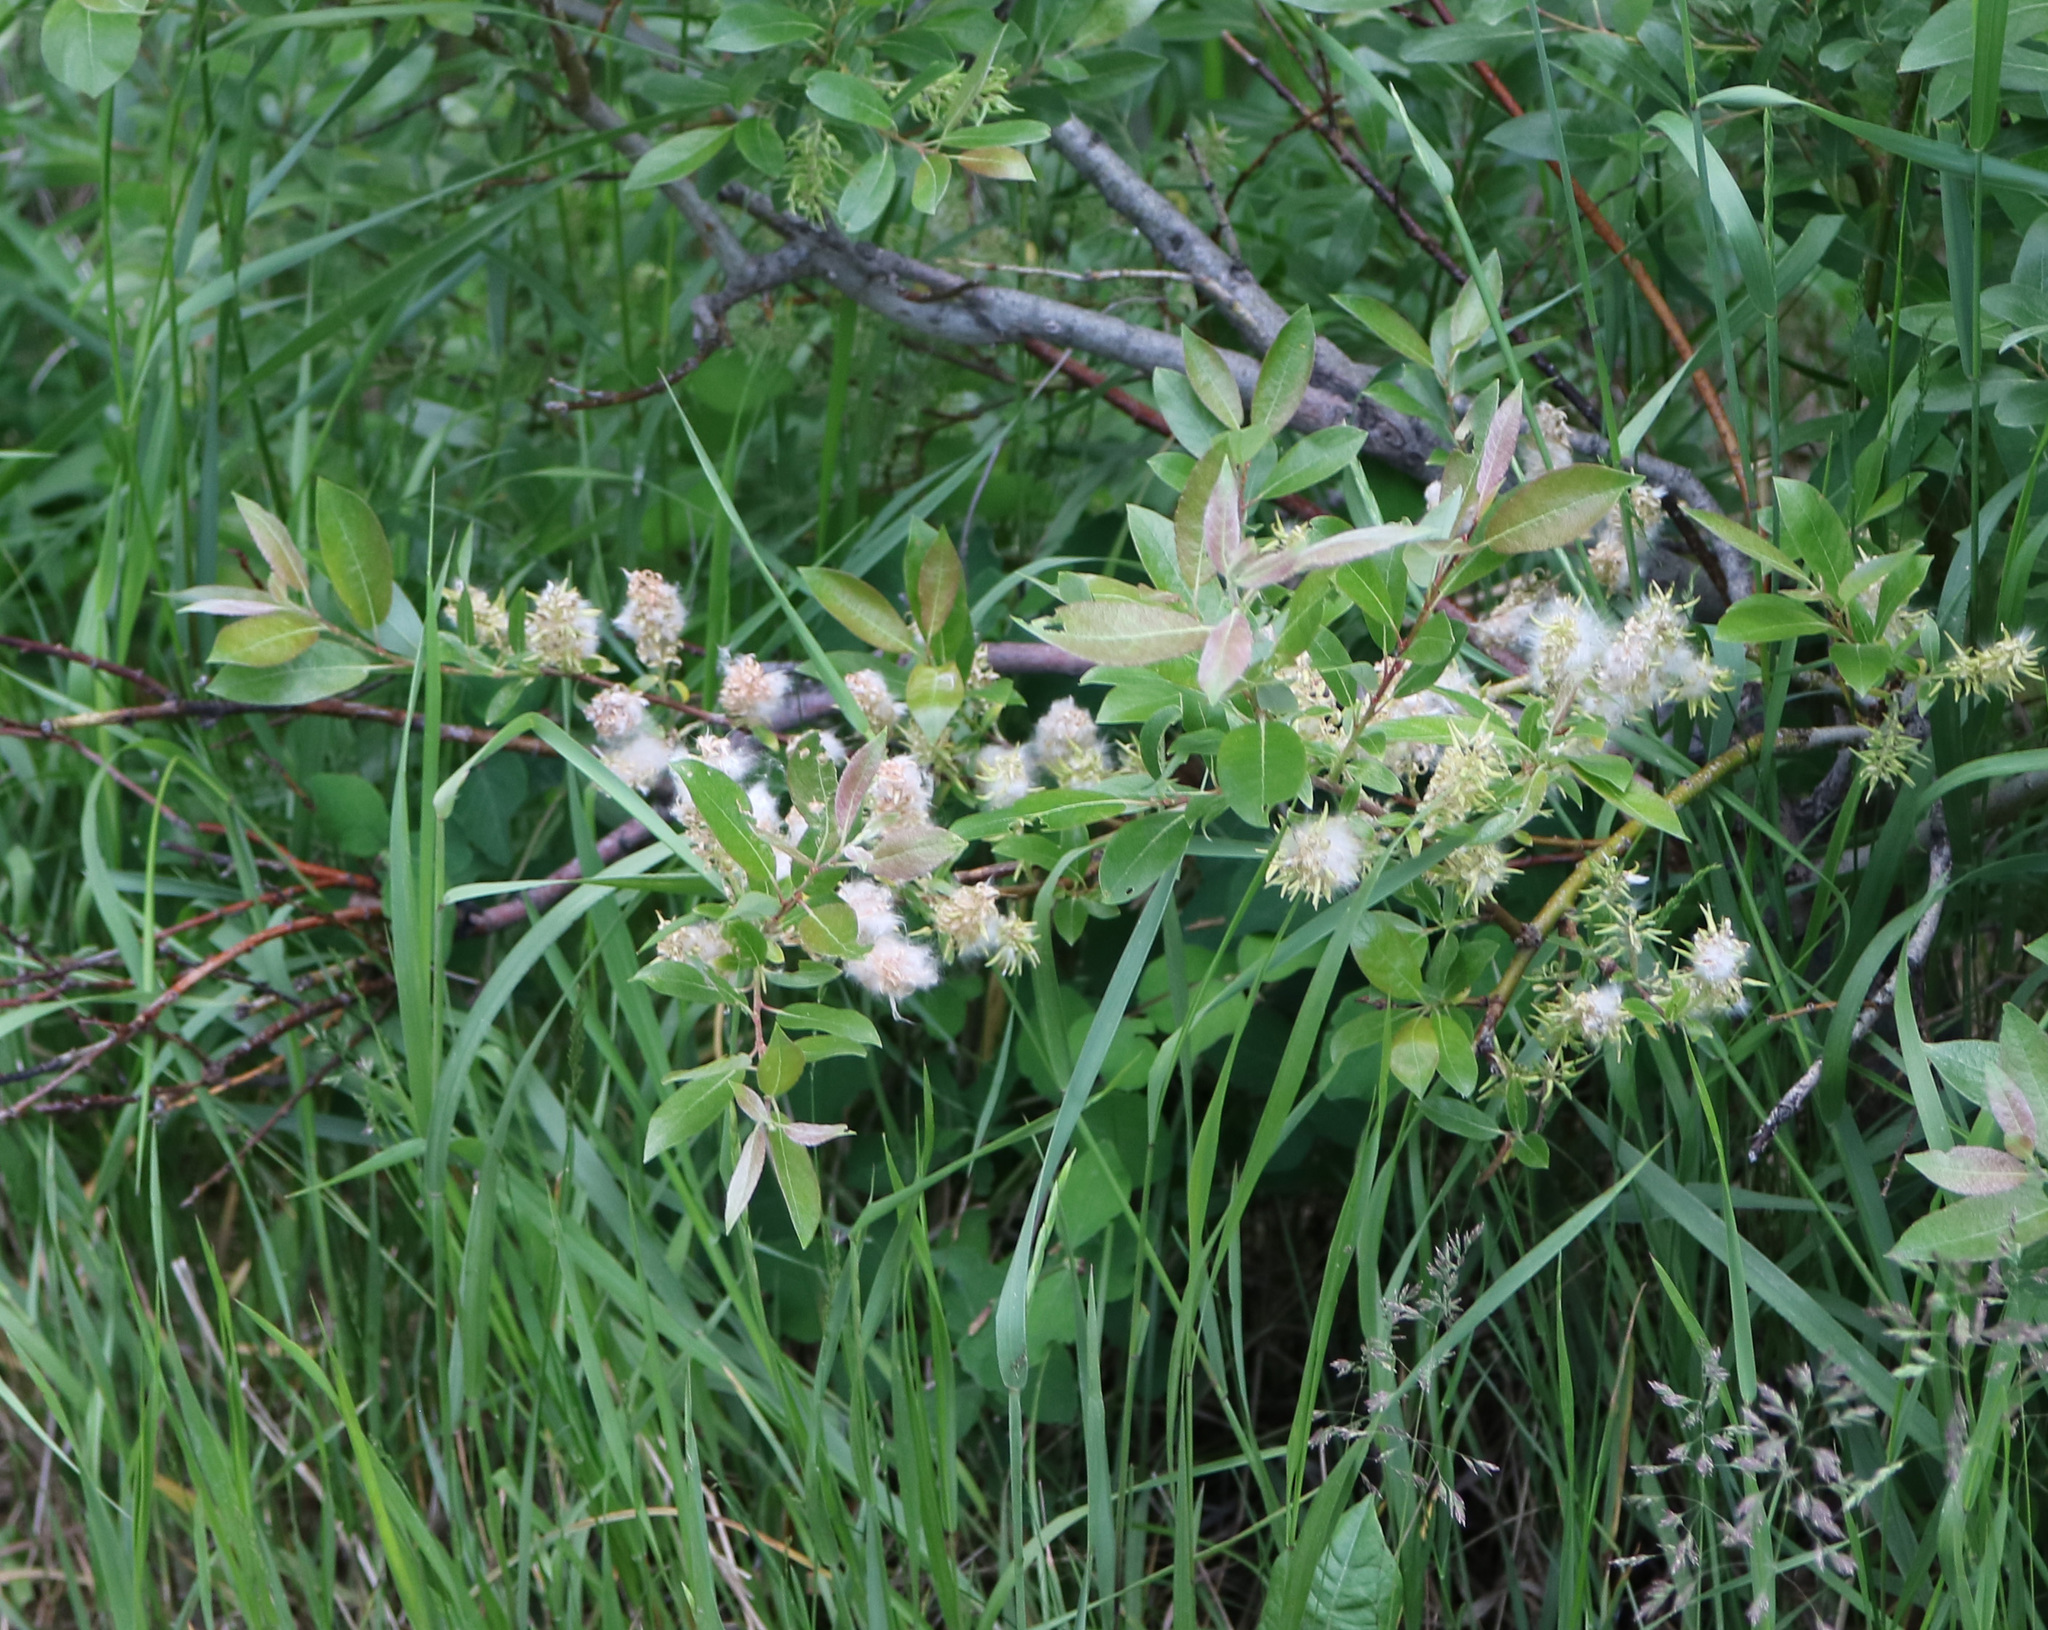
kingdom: Plantae
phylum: Tracheophyta
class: Magnoliopsida
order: Malpighiales
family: Salicaceae
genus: Salix
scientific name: Salix bebbiana
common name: Bebb's willow
